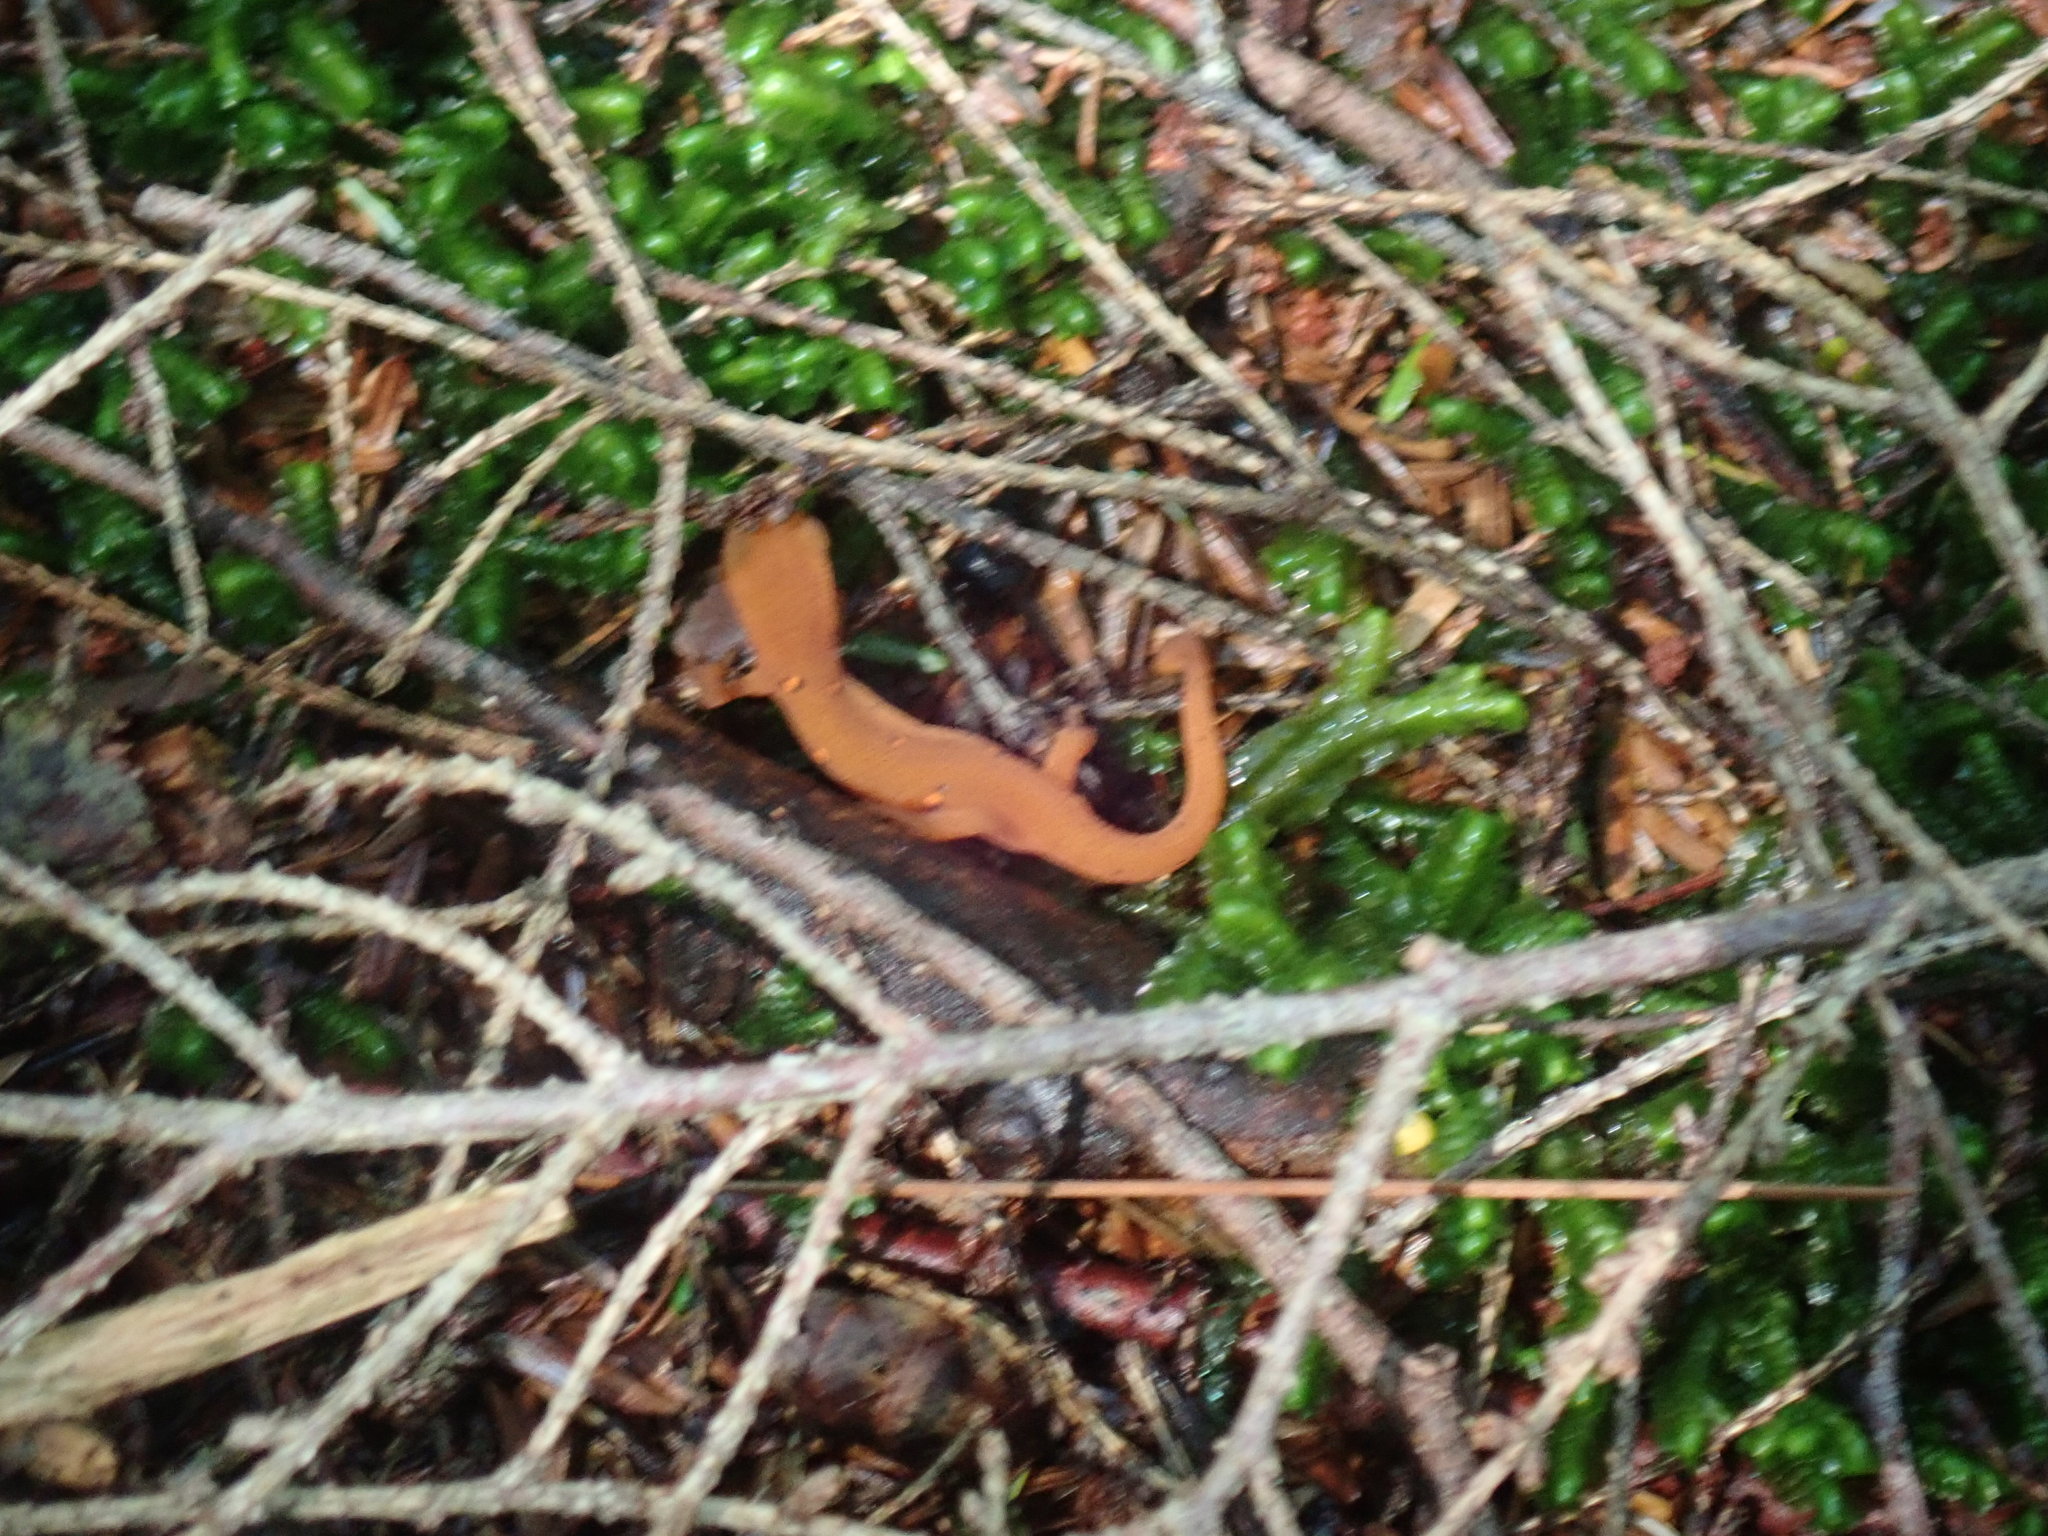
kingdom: Animalia
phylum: Chordata
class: Amphibia
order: Caudata
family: Salamandridae
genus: Notophthalmus
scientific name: Notophthalmus viridescens
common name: Eastern newt
